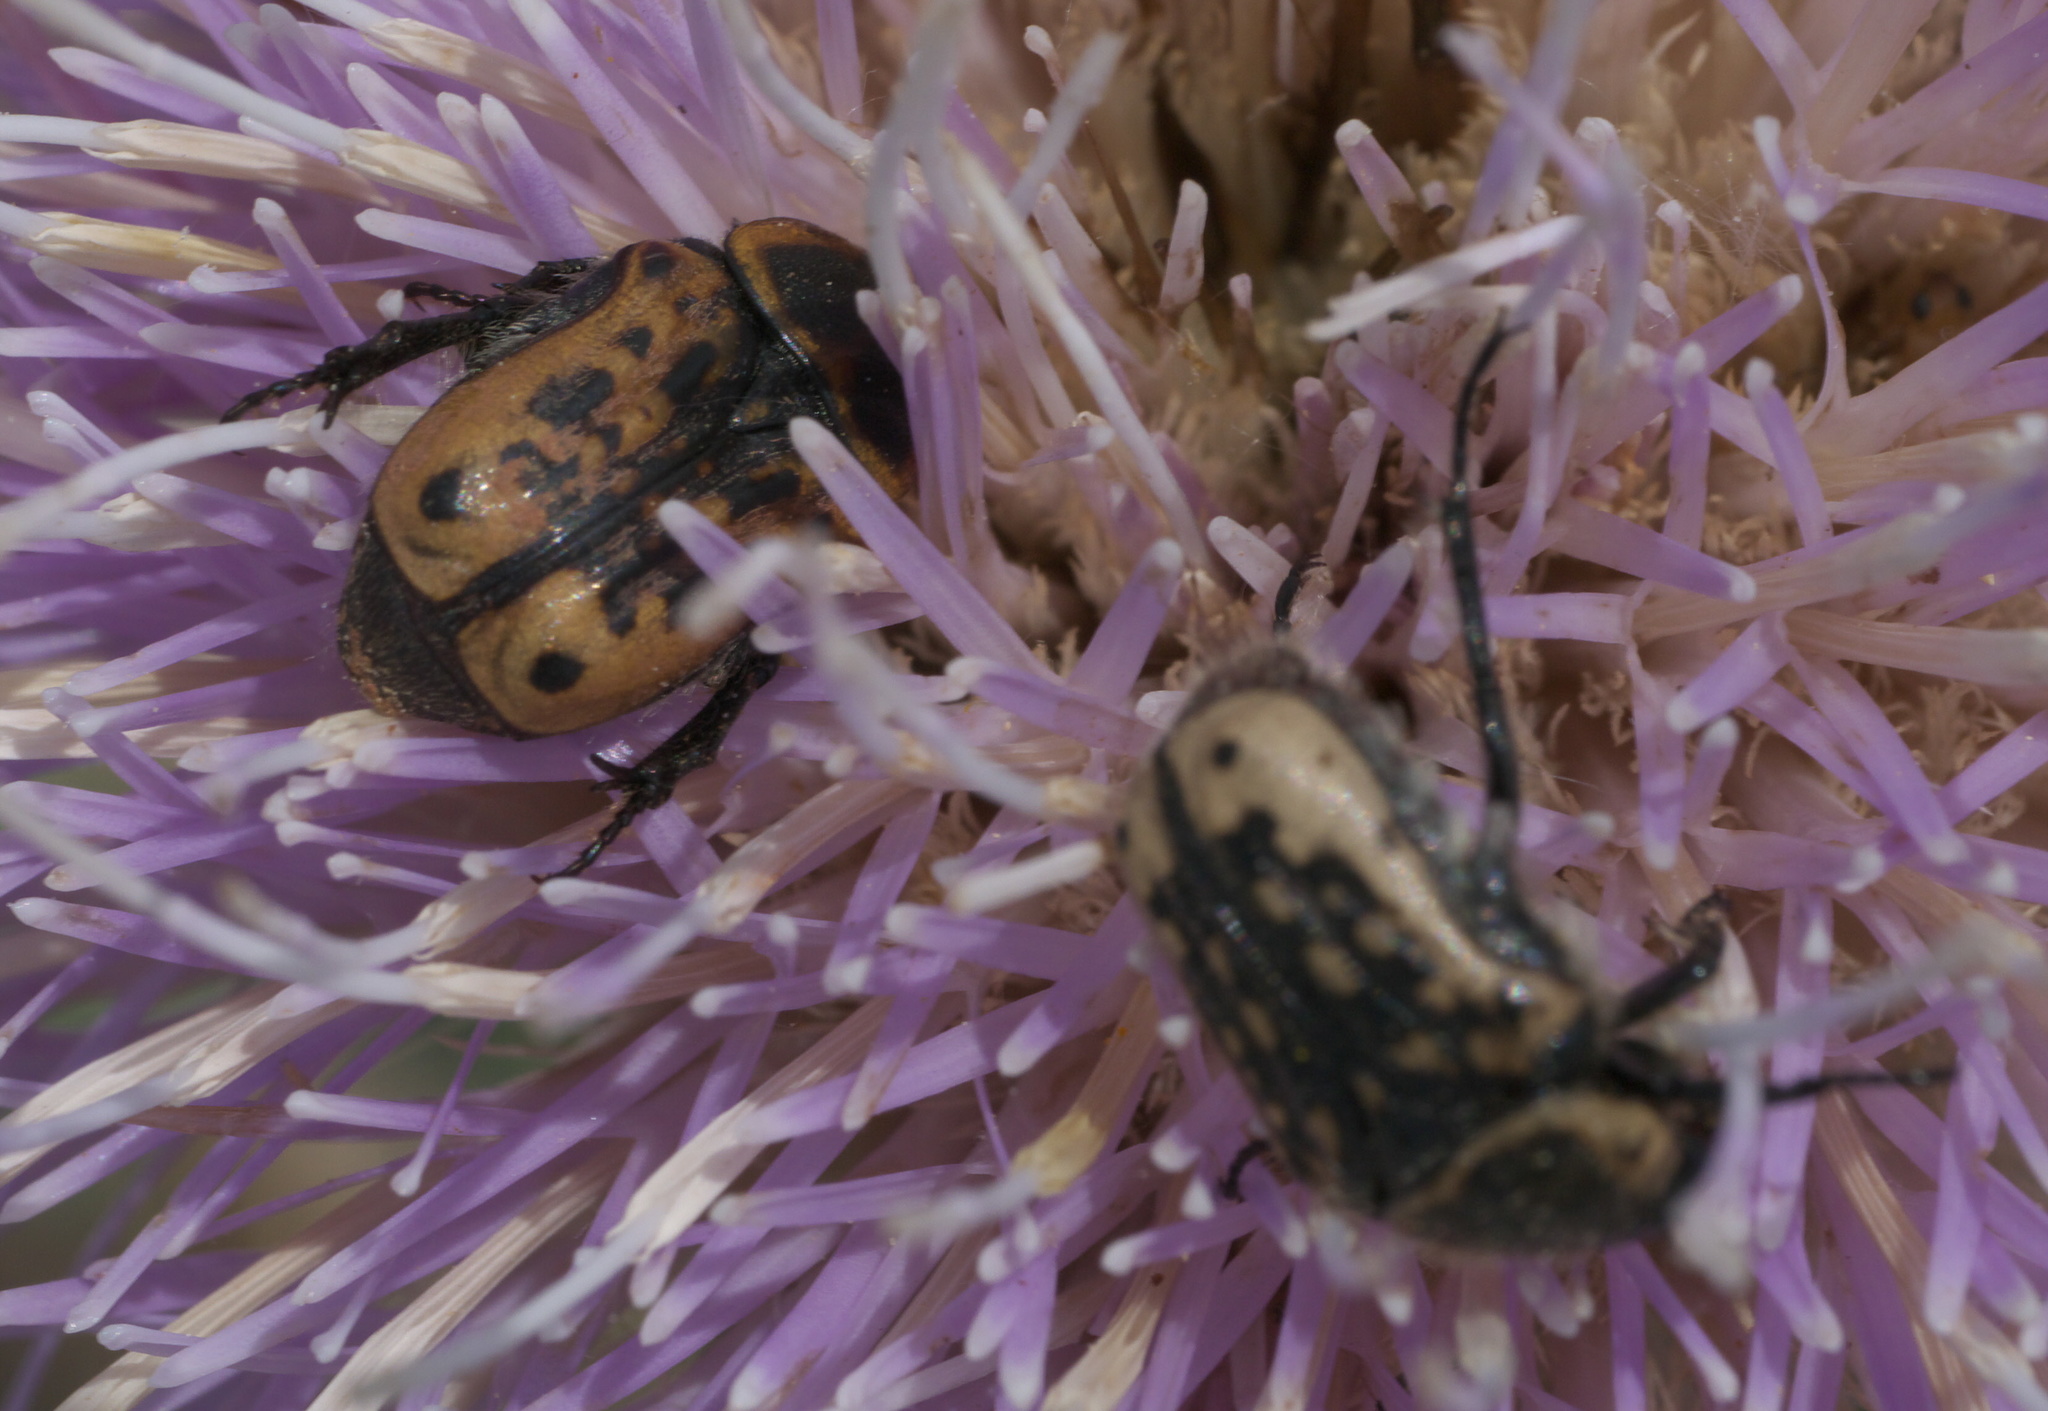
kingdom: Animalia
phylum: Arthropoda
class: Insecta
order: Coleoptera
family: Scarabaeidae
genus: Euphoria
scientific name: Euphoria kernii
